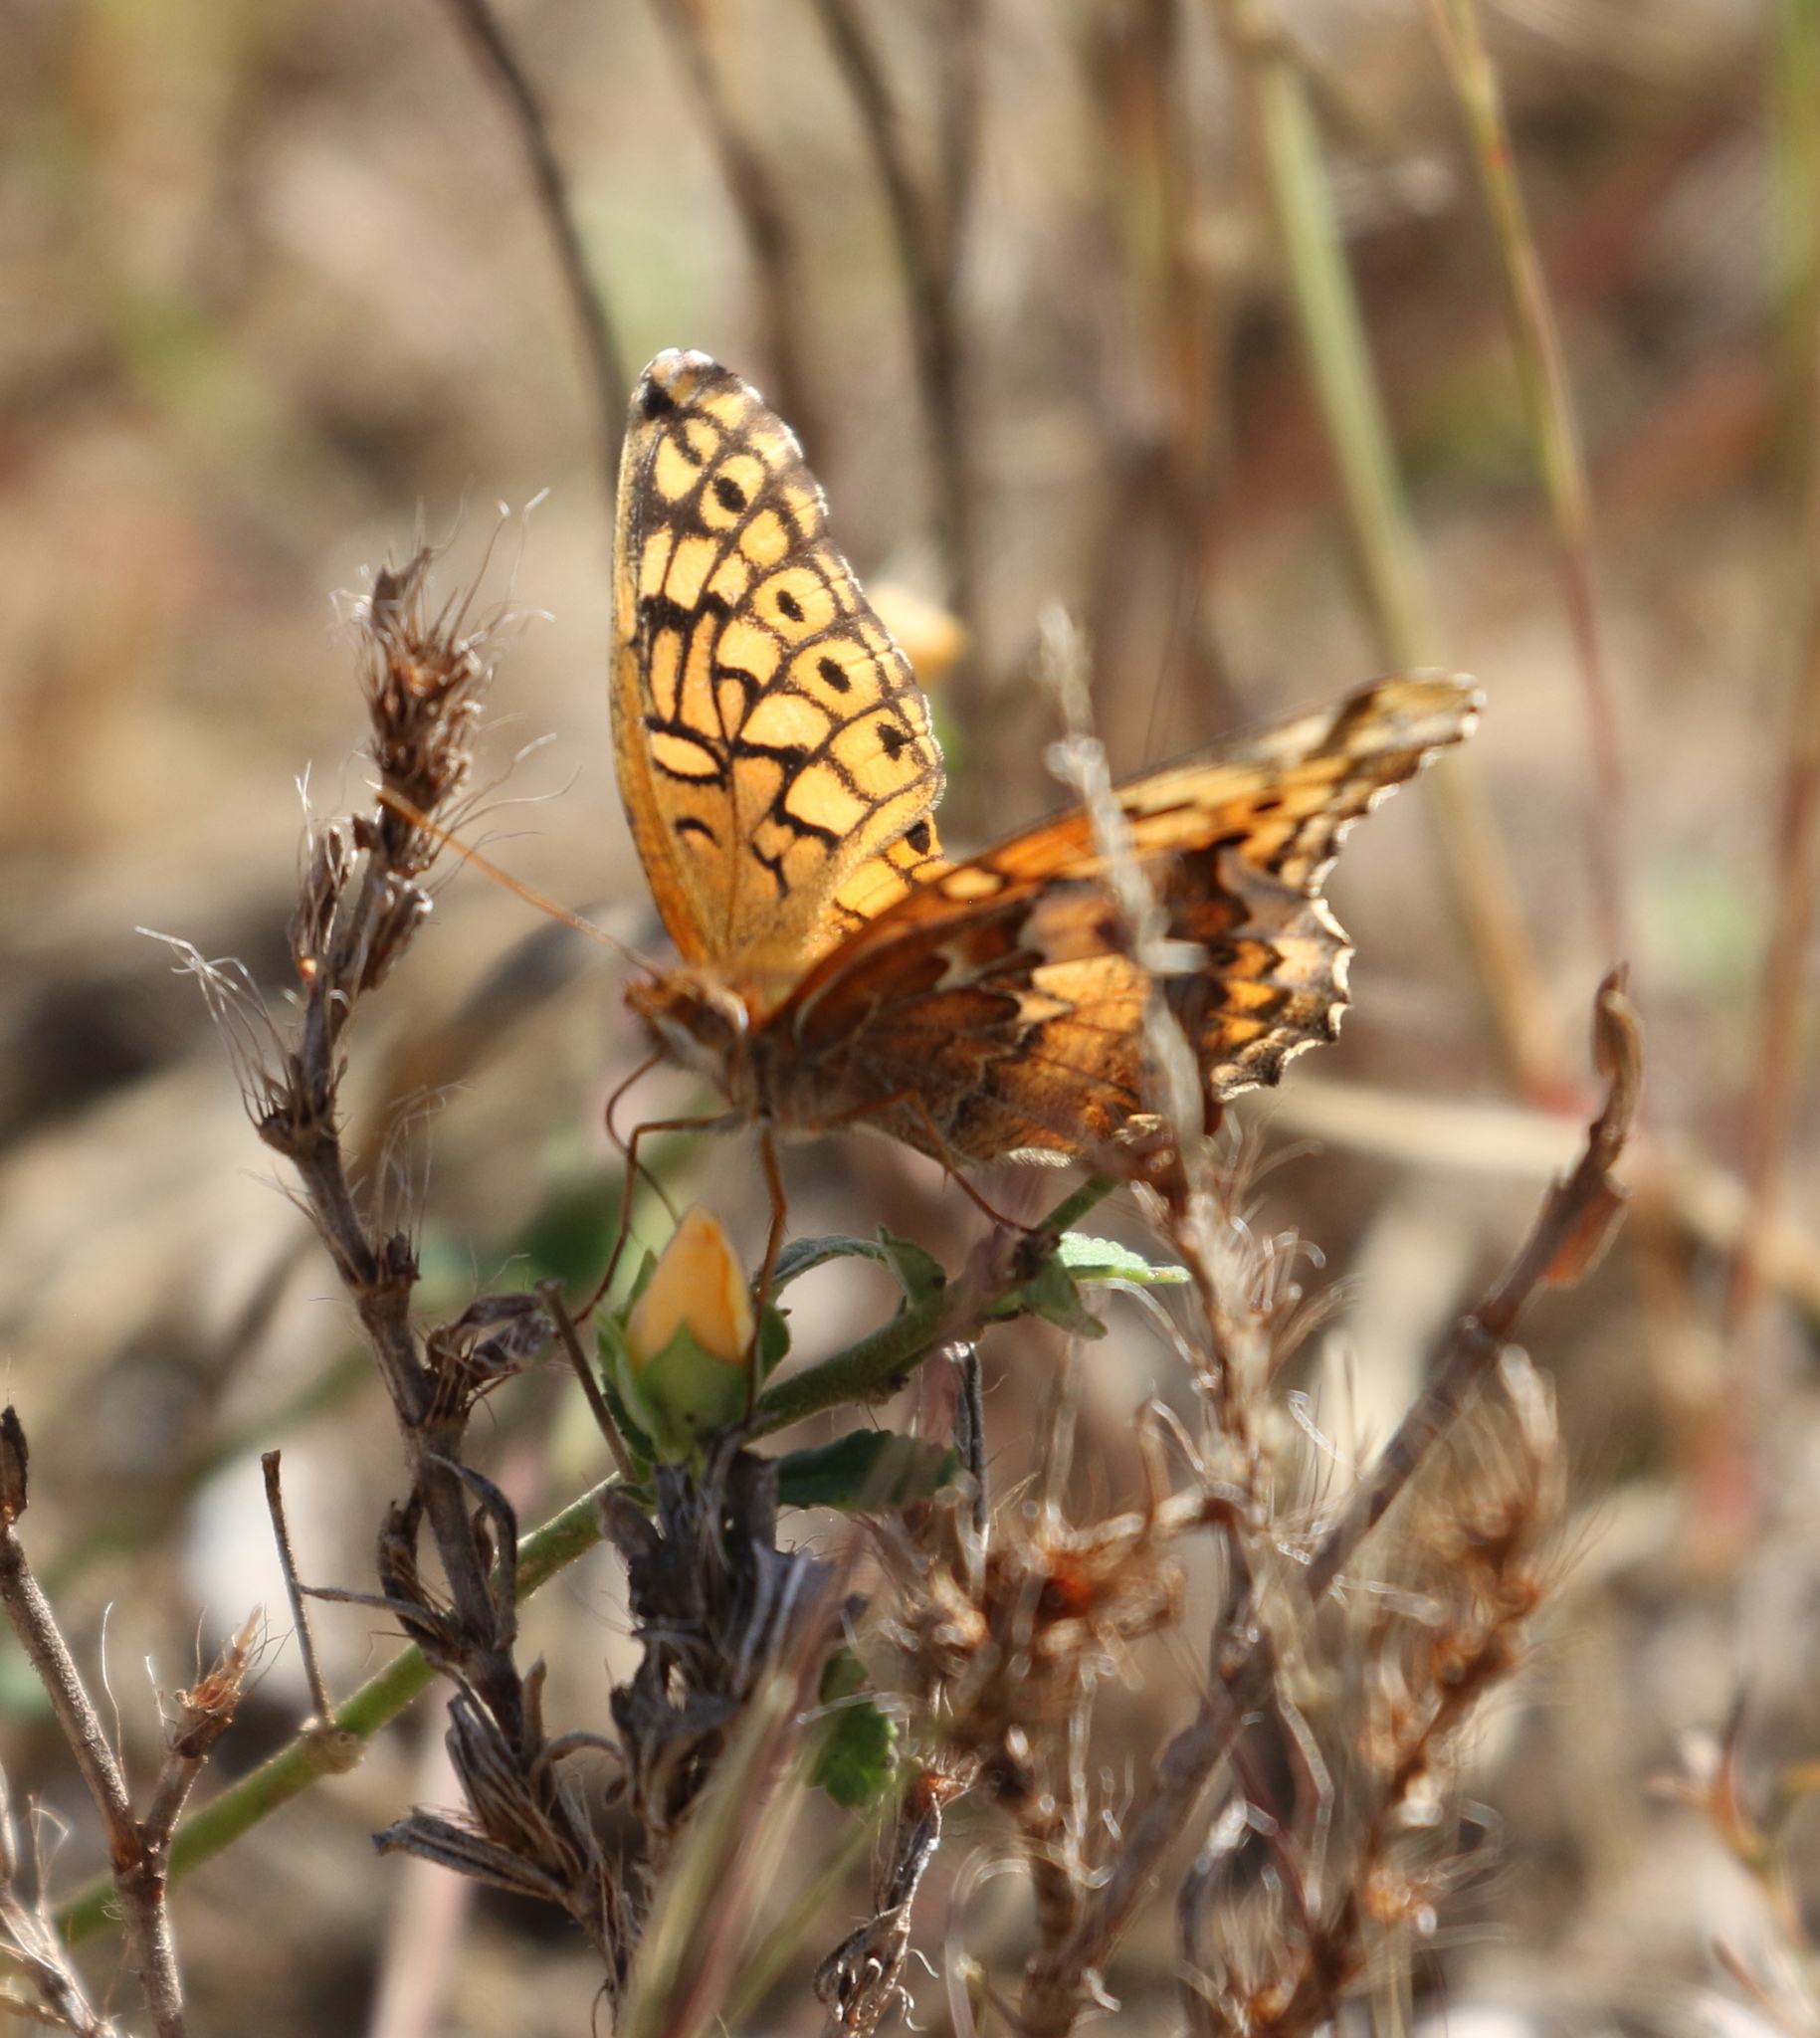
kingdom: Animalia
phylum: Arthropoda
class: Insecta
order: Lepidoptera
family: Nymphalidae
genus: Euptoieta
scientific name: Euptoieta claudia
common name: Variegated fritillary
